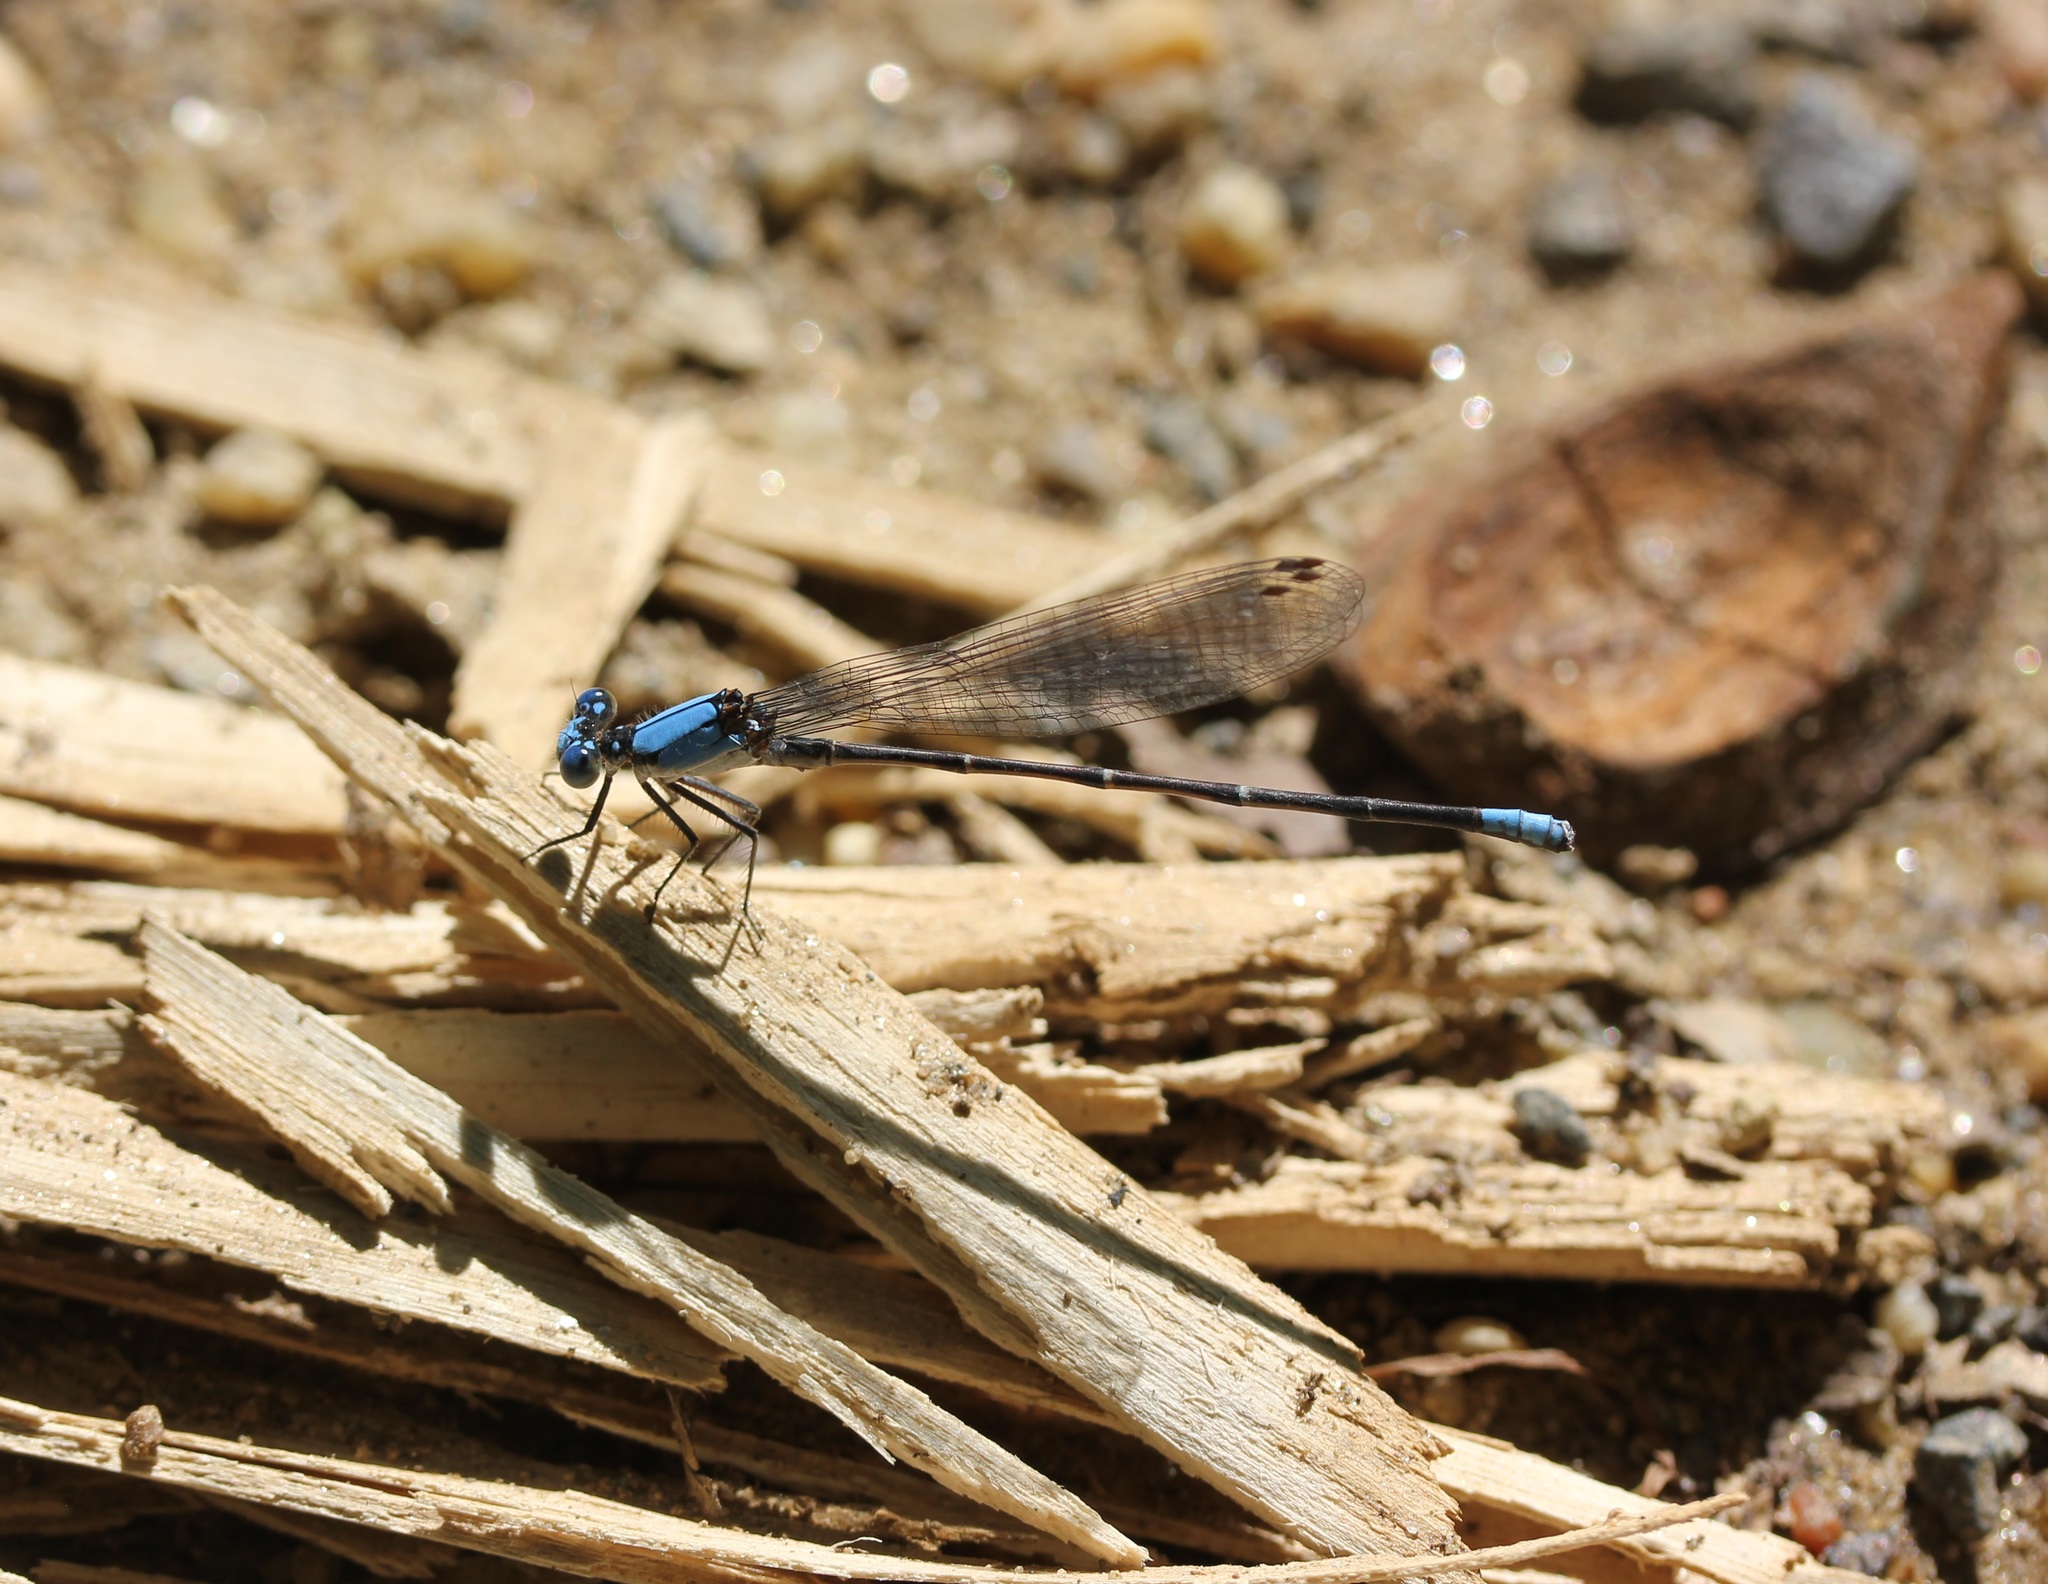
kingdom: Animalia
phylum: Arthropoda
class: Insecta
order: Odonata
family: Coenagrionidae
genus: Argia
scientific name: Argia apicalis
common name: Blue-fronted dancer
